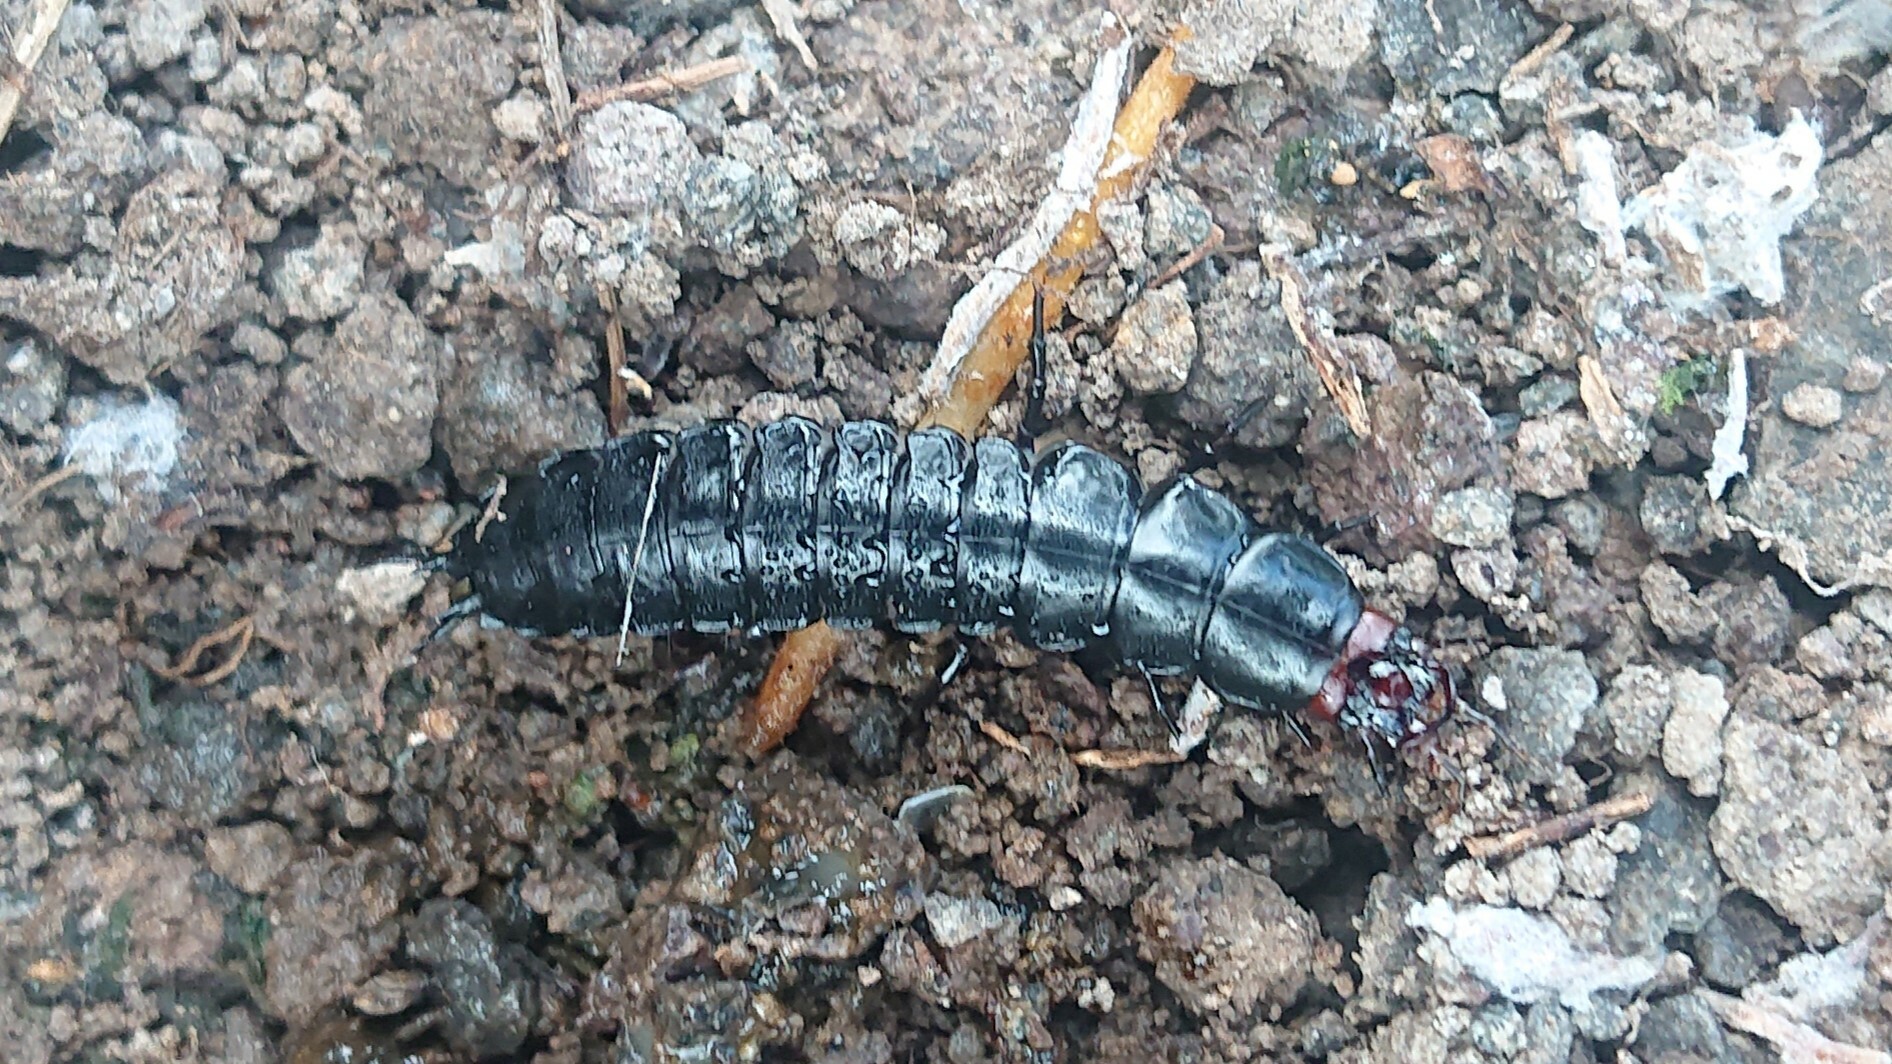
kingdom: Animalia
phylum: Arthropoda
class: Insecta
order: Coleoptera
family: Carabidae
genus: Carabus
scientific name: Carabus
